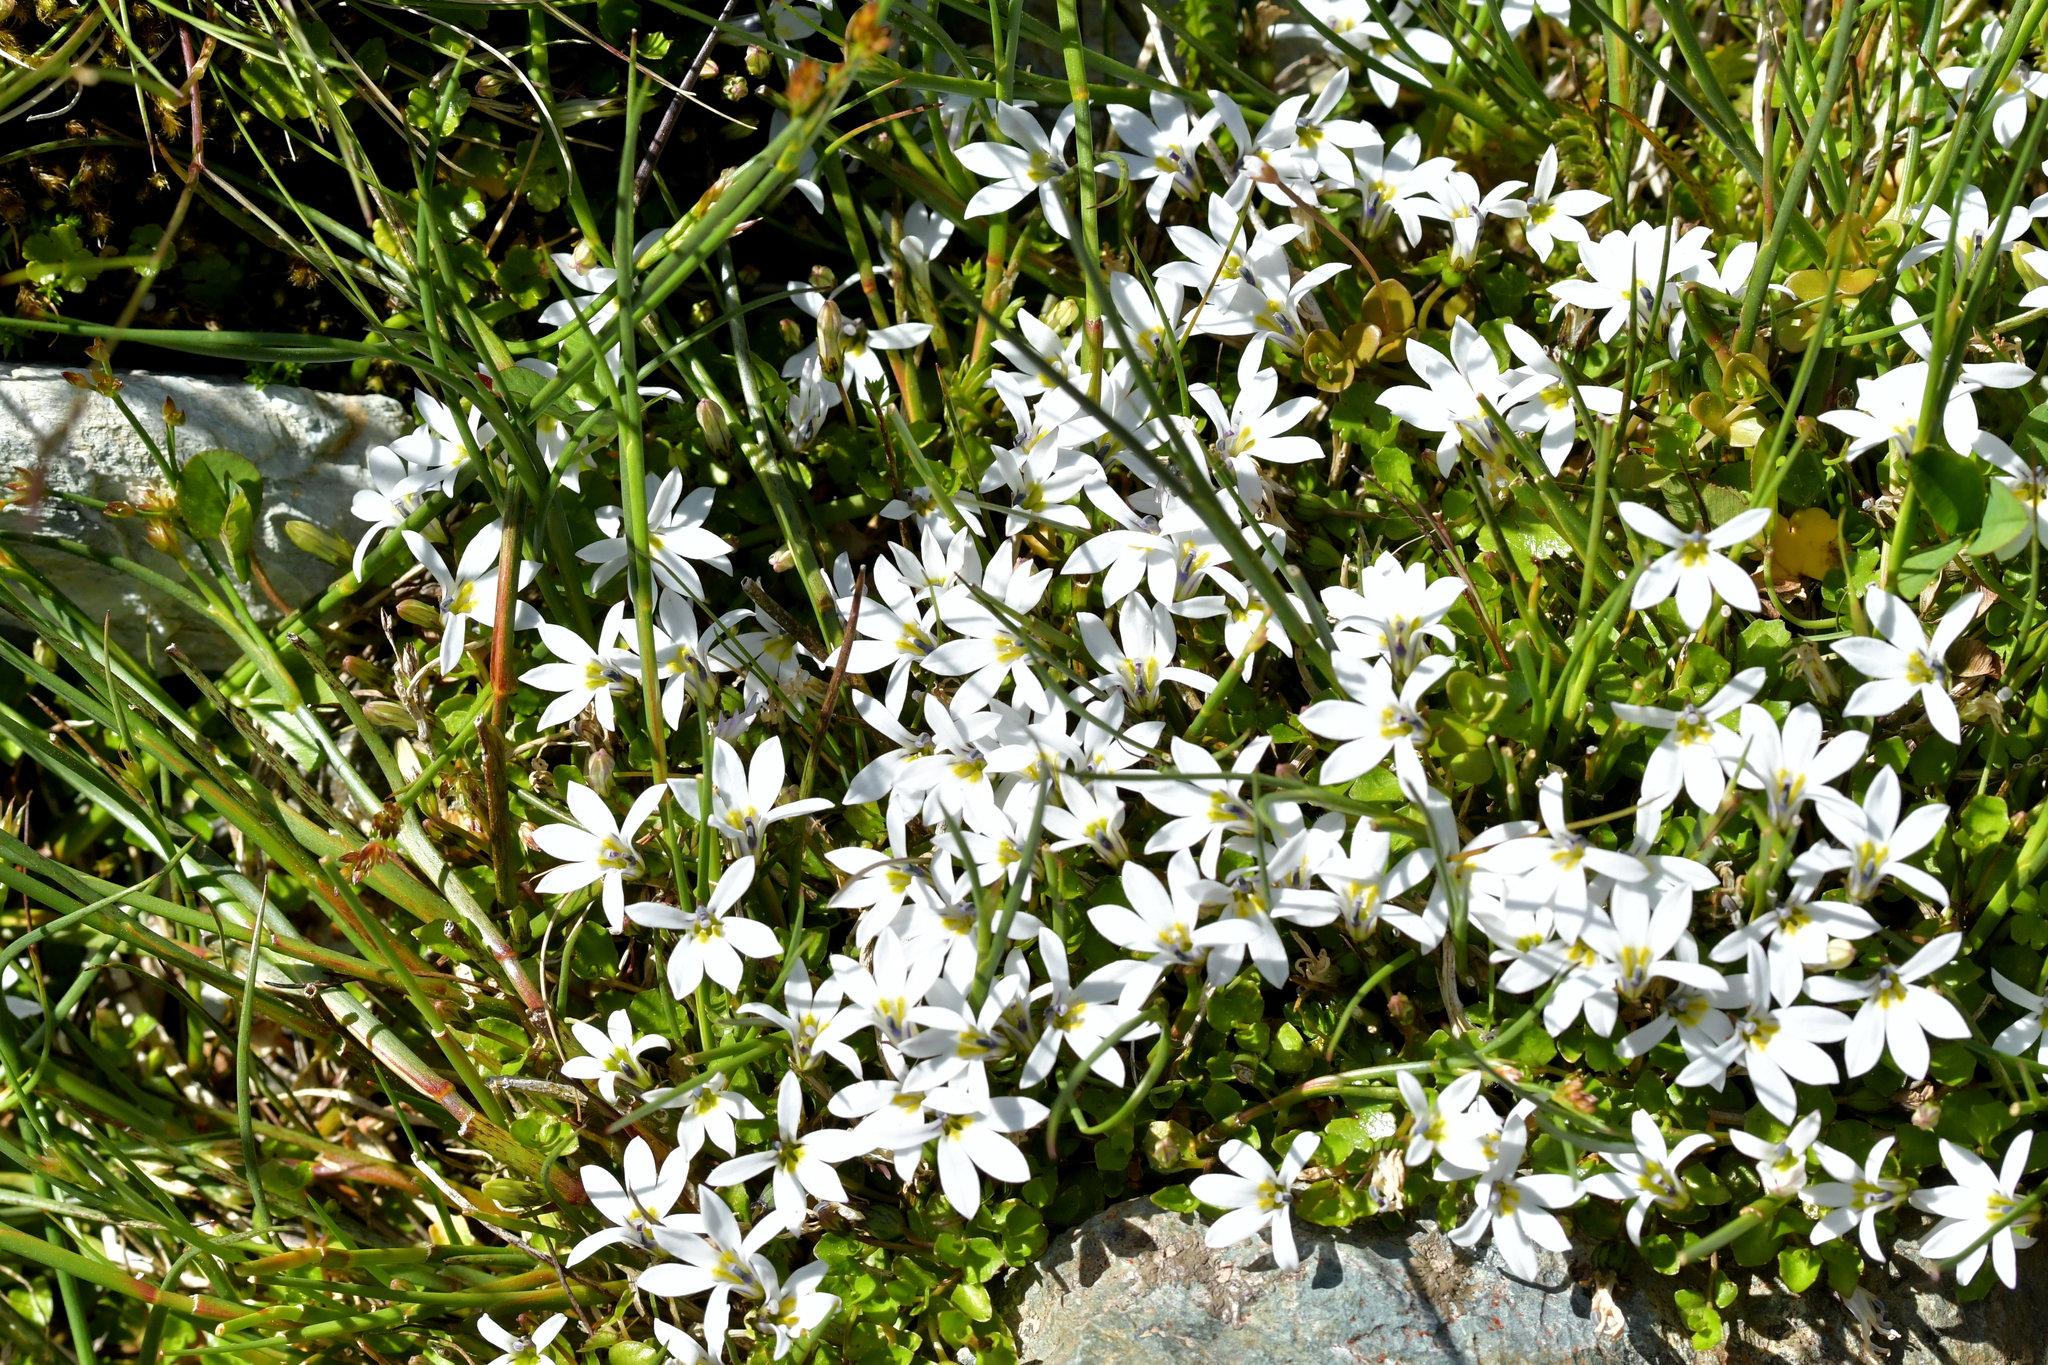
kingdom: Plantae
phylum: Tracheophyta
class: Magnoliopsida
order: Asterales
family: Campanulaceae
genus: Lobelia
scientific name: Lobelia angulata
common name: Lawn lobelia
